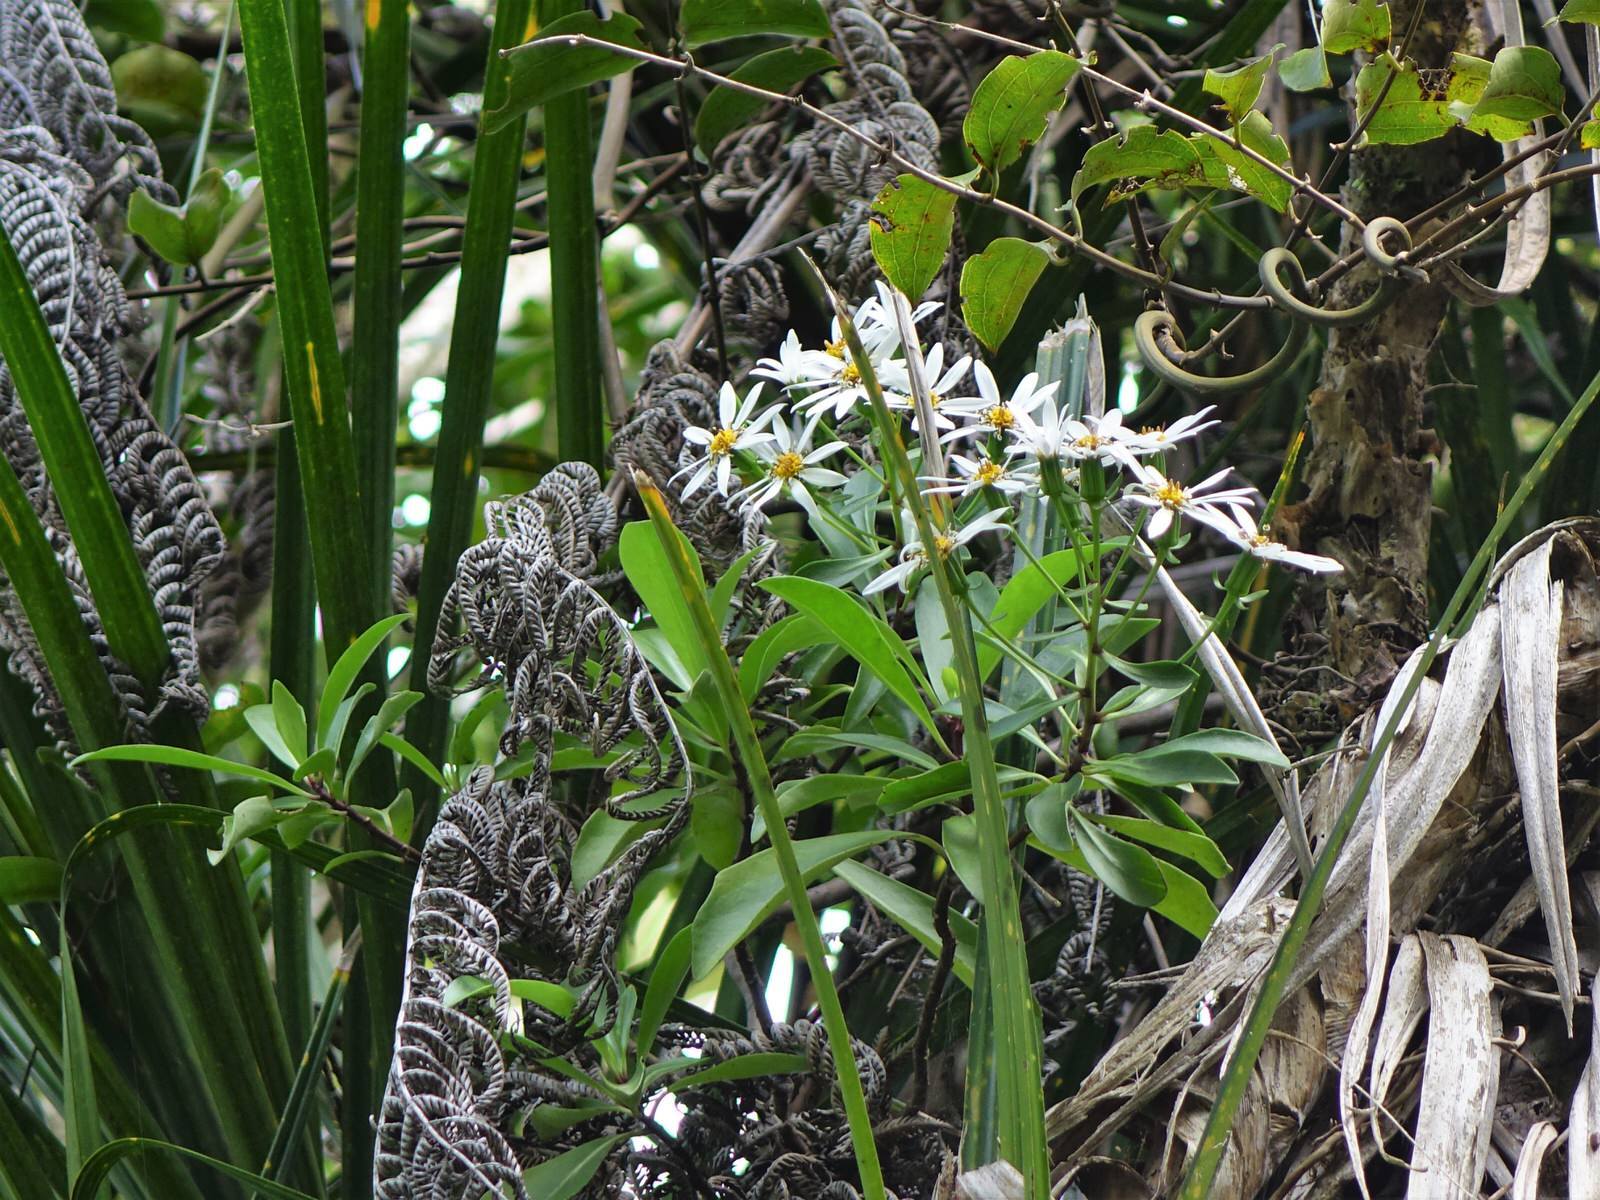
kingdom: Plantae
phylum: Tracheophyta
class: Magnoliopsida
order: Asterales
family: Asteraceae
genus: Brachyglottis
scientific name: Brachyglottis kirkii
